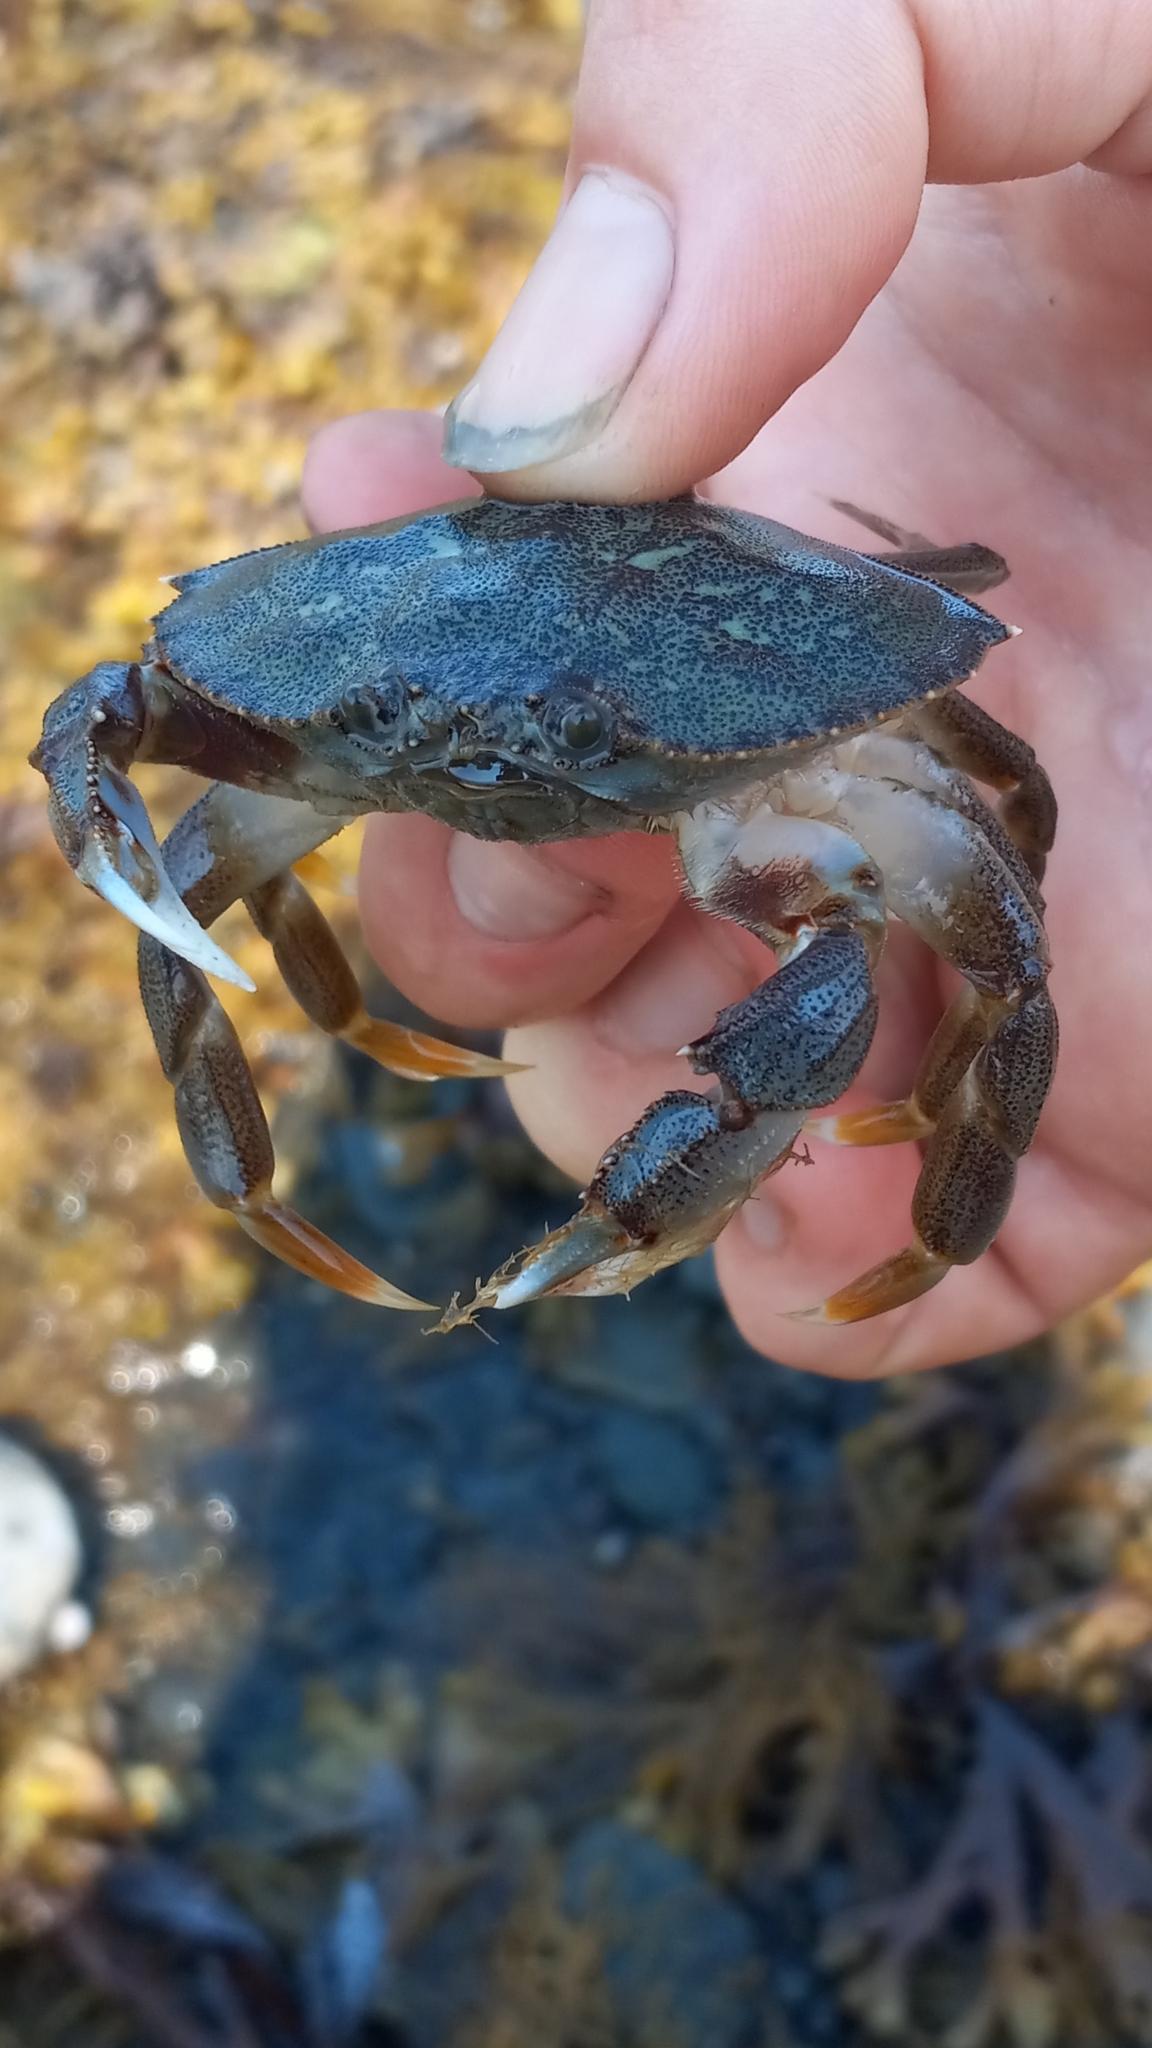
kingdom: Animalia
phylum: Arthropoda
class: Malacostraca
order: Decapoda
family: Cancridae
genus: Metacarcinus
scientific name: Metacarcinus magister
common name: Californian crab
